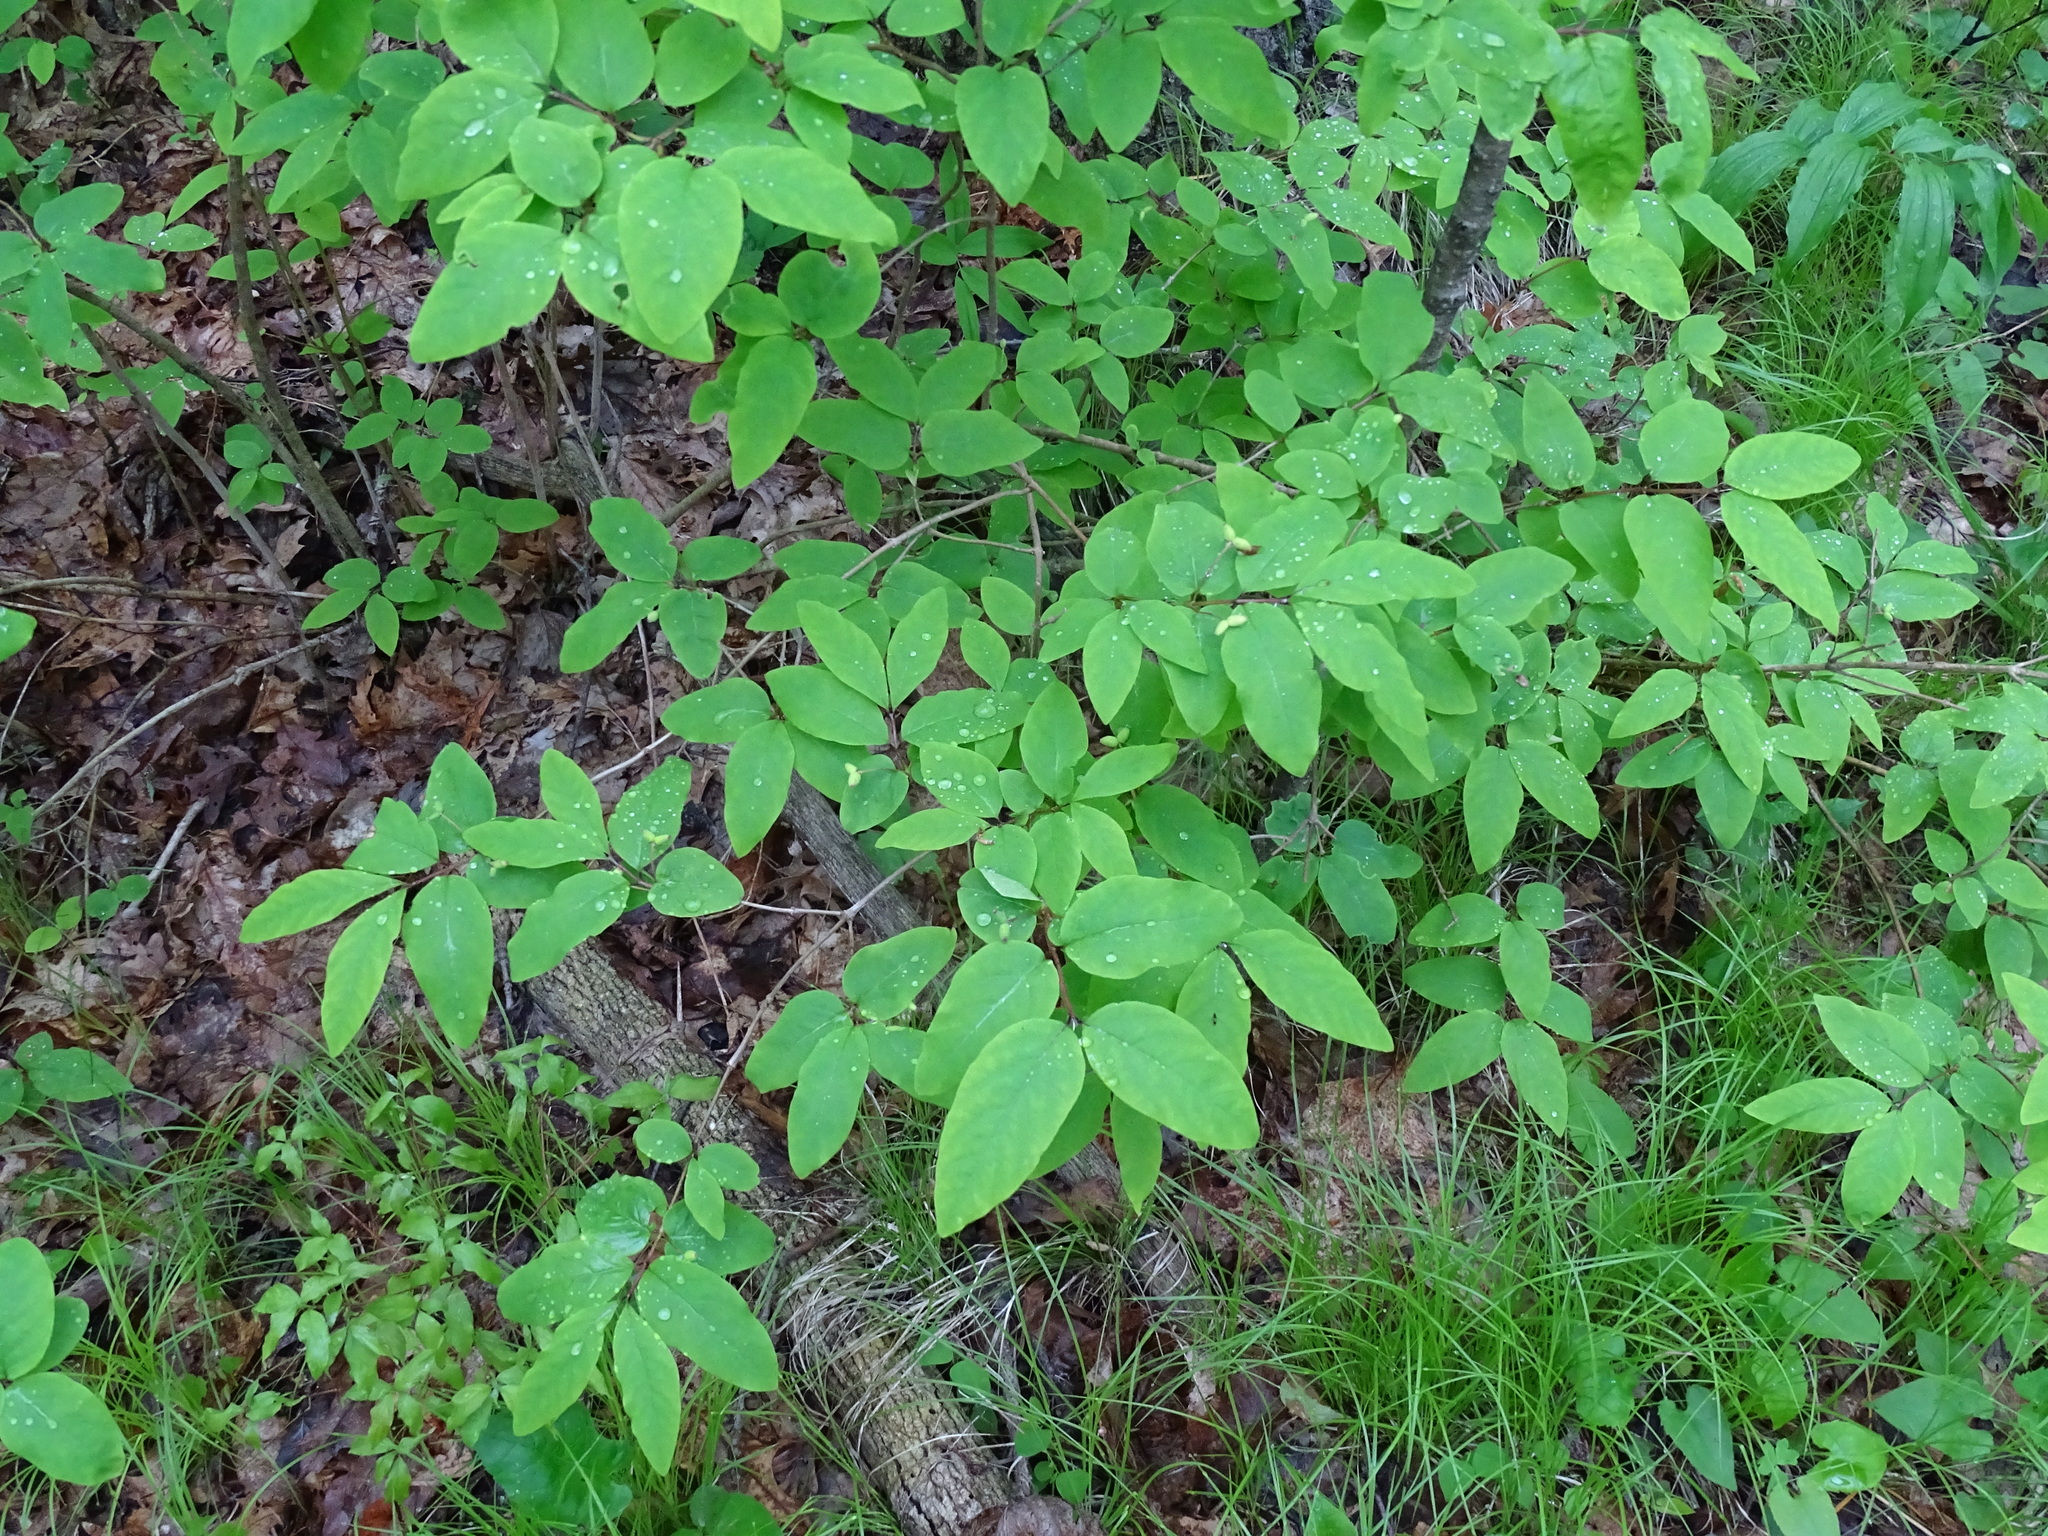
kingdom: Plantae
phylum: Tracheophyta
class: Magnoliopsida
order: Dipsacales
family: Caprifoliaceae
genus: Lonicera
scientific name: Lonicera canadensis
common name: American fly-honeysuckle
